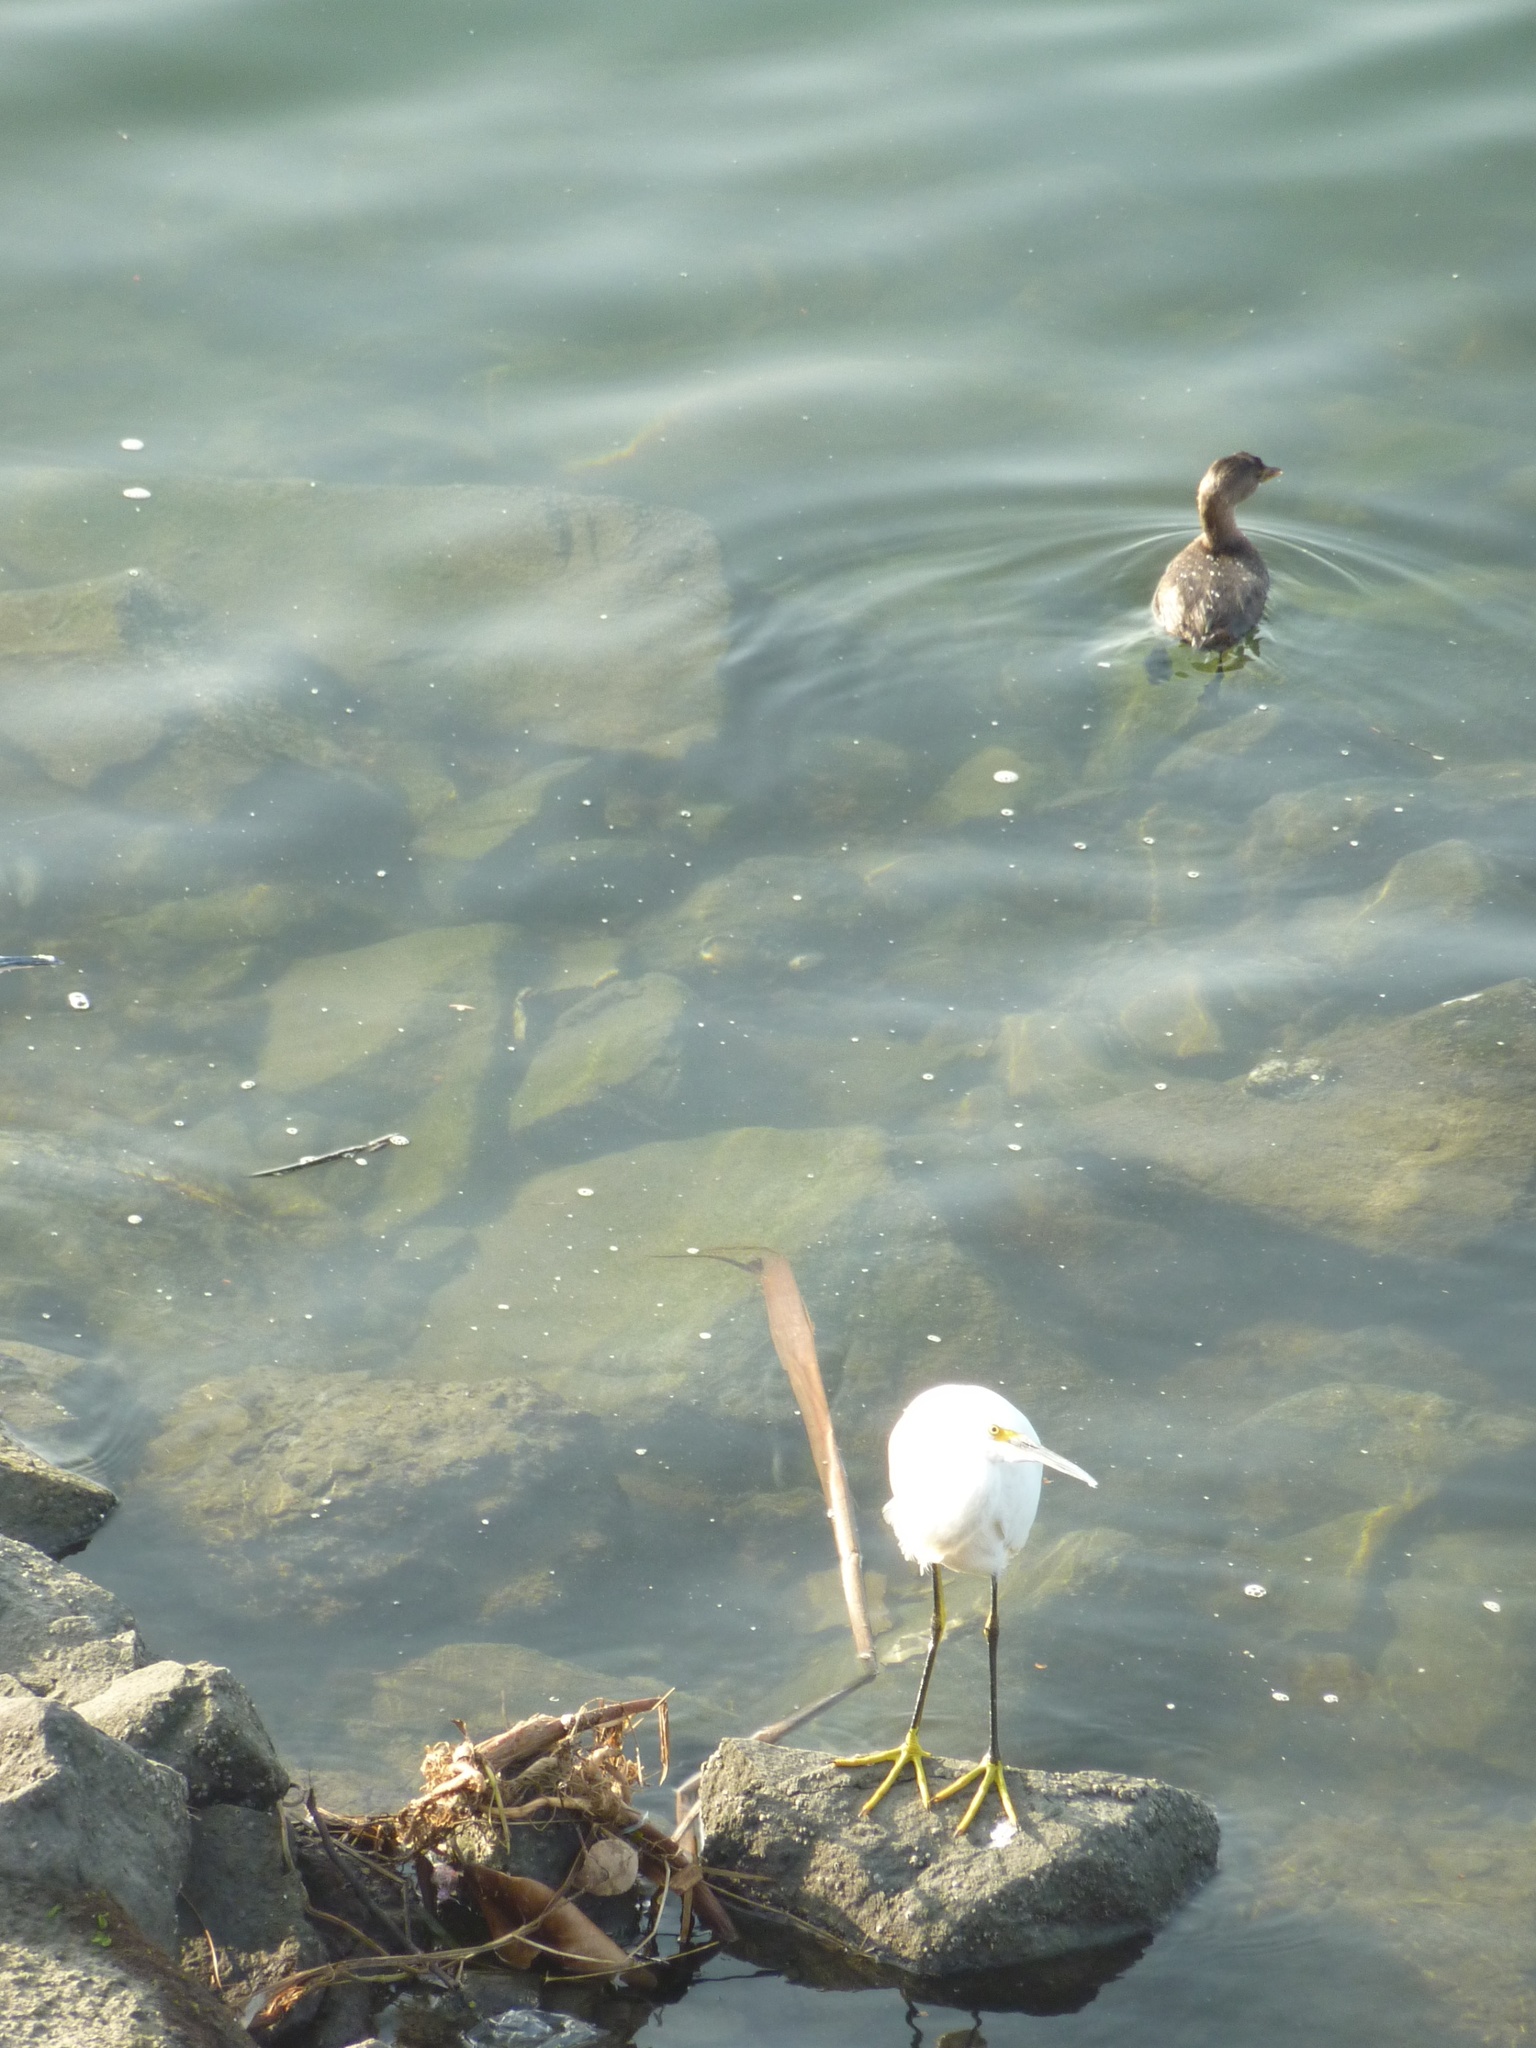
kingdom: Animalia
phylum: Chordata
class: Aves
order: Podicipediformes
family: Podicipedidae
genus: Podilymbus
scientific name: Podilymbus podiceps
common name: Pied-billed grebe
